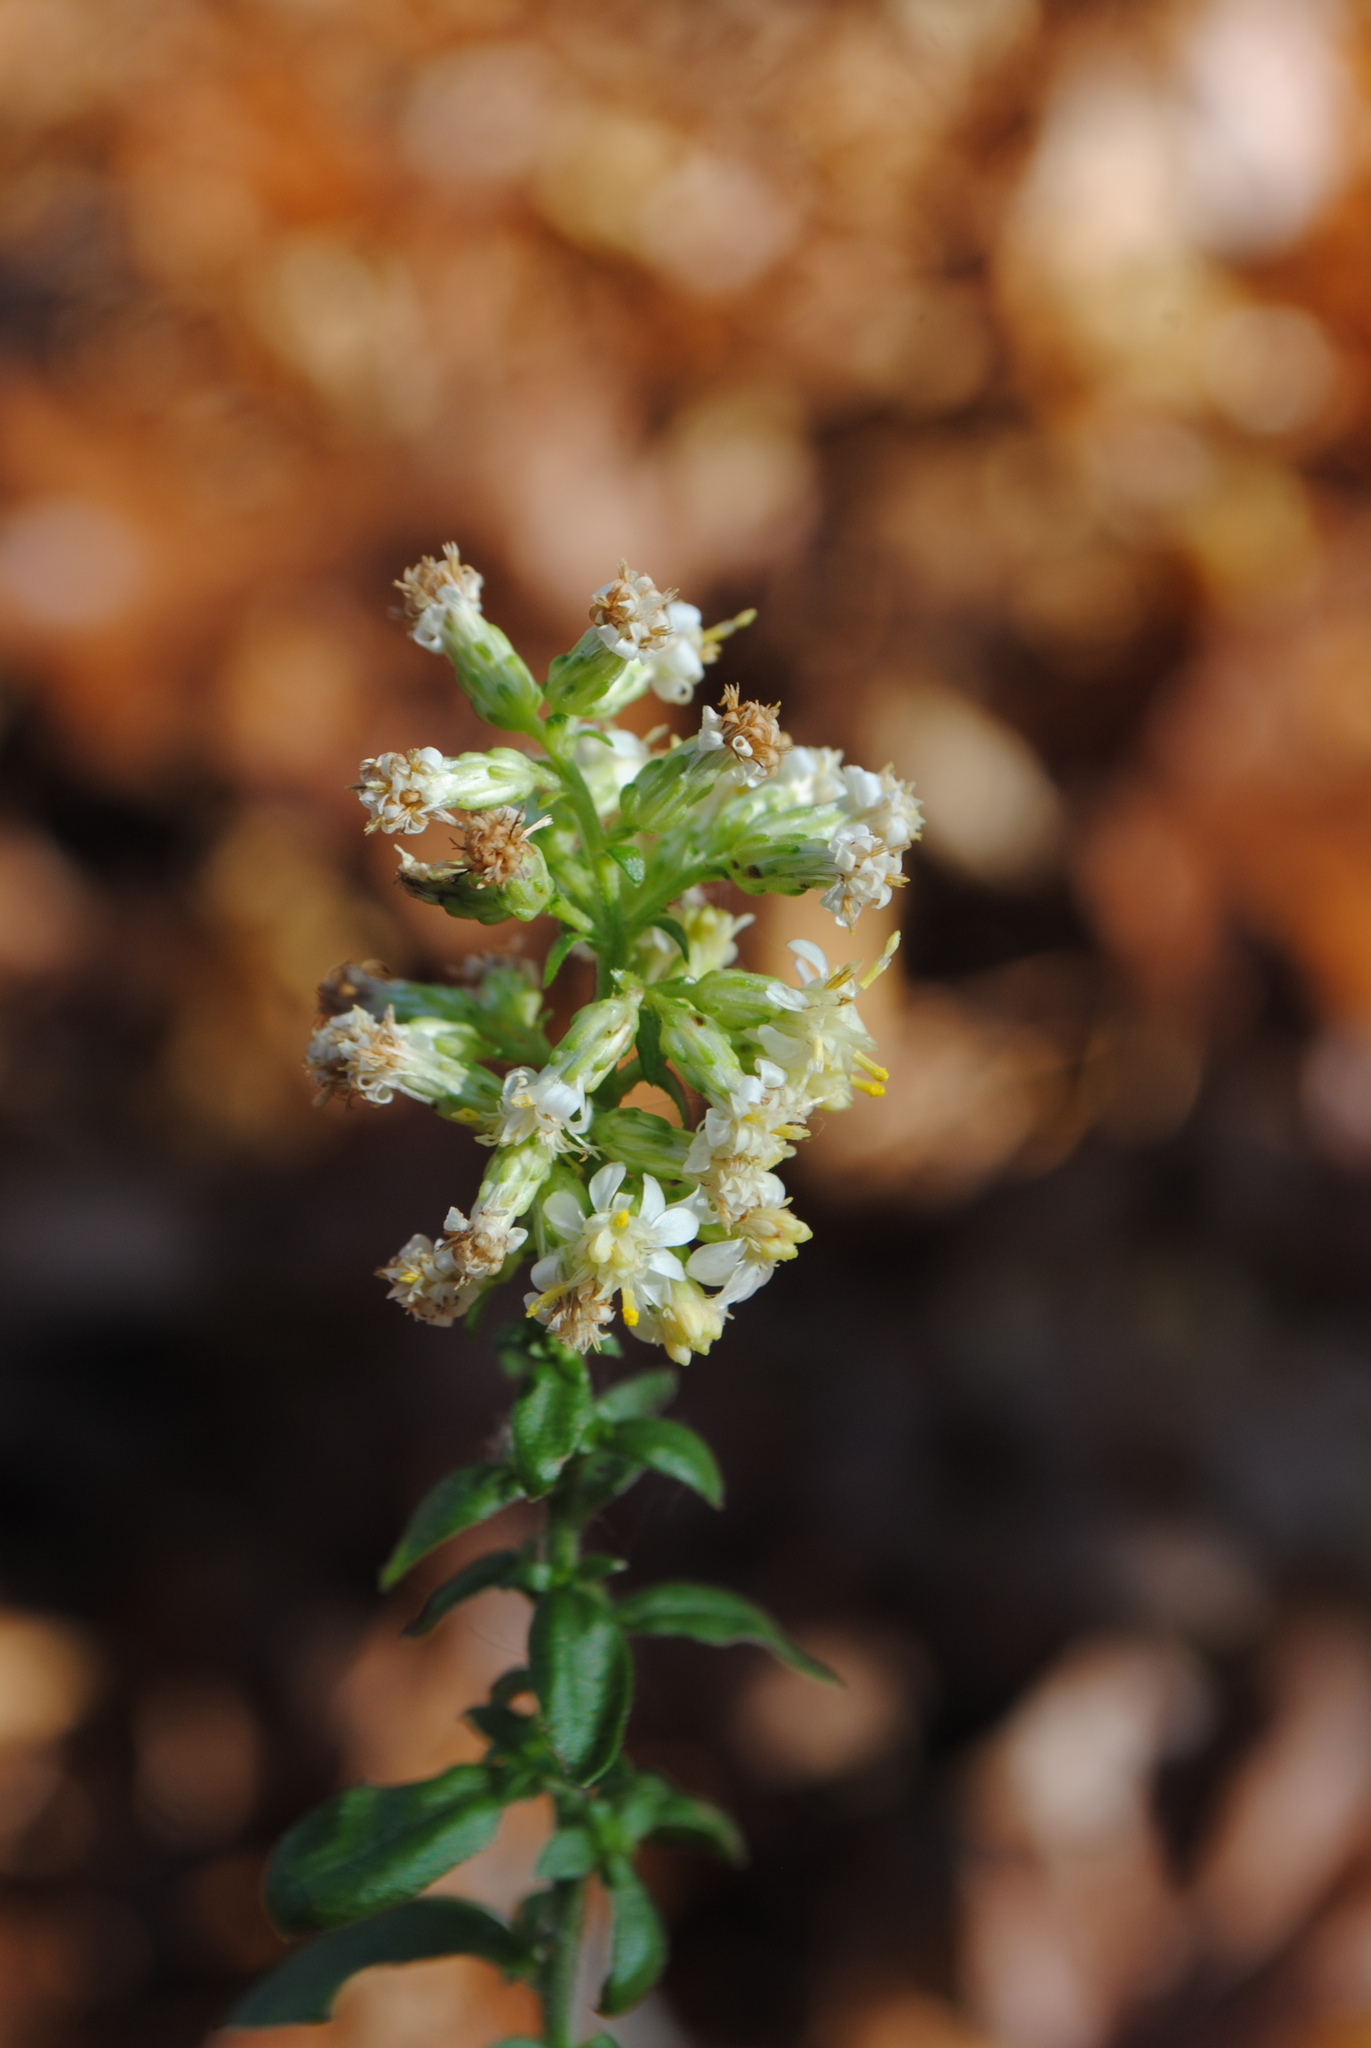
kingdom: Plantae
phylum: Tracheophyta
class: Magnoliopsida
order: Asterales
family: Asteraceae
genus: Solidago
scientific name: Solidago bicolor
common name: Silverrod
